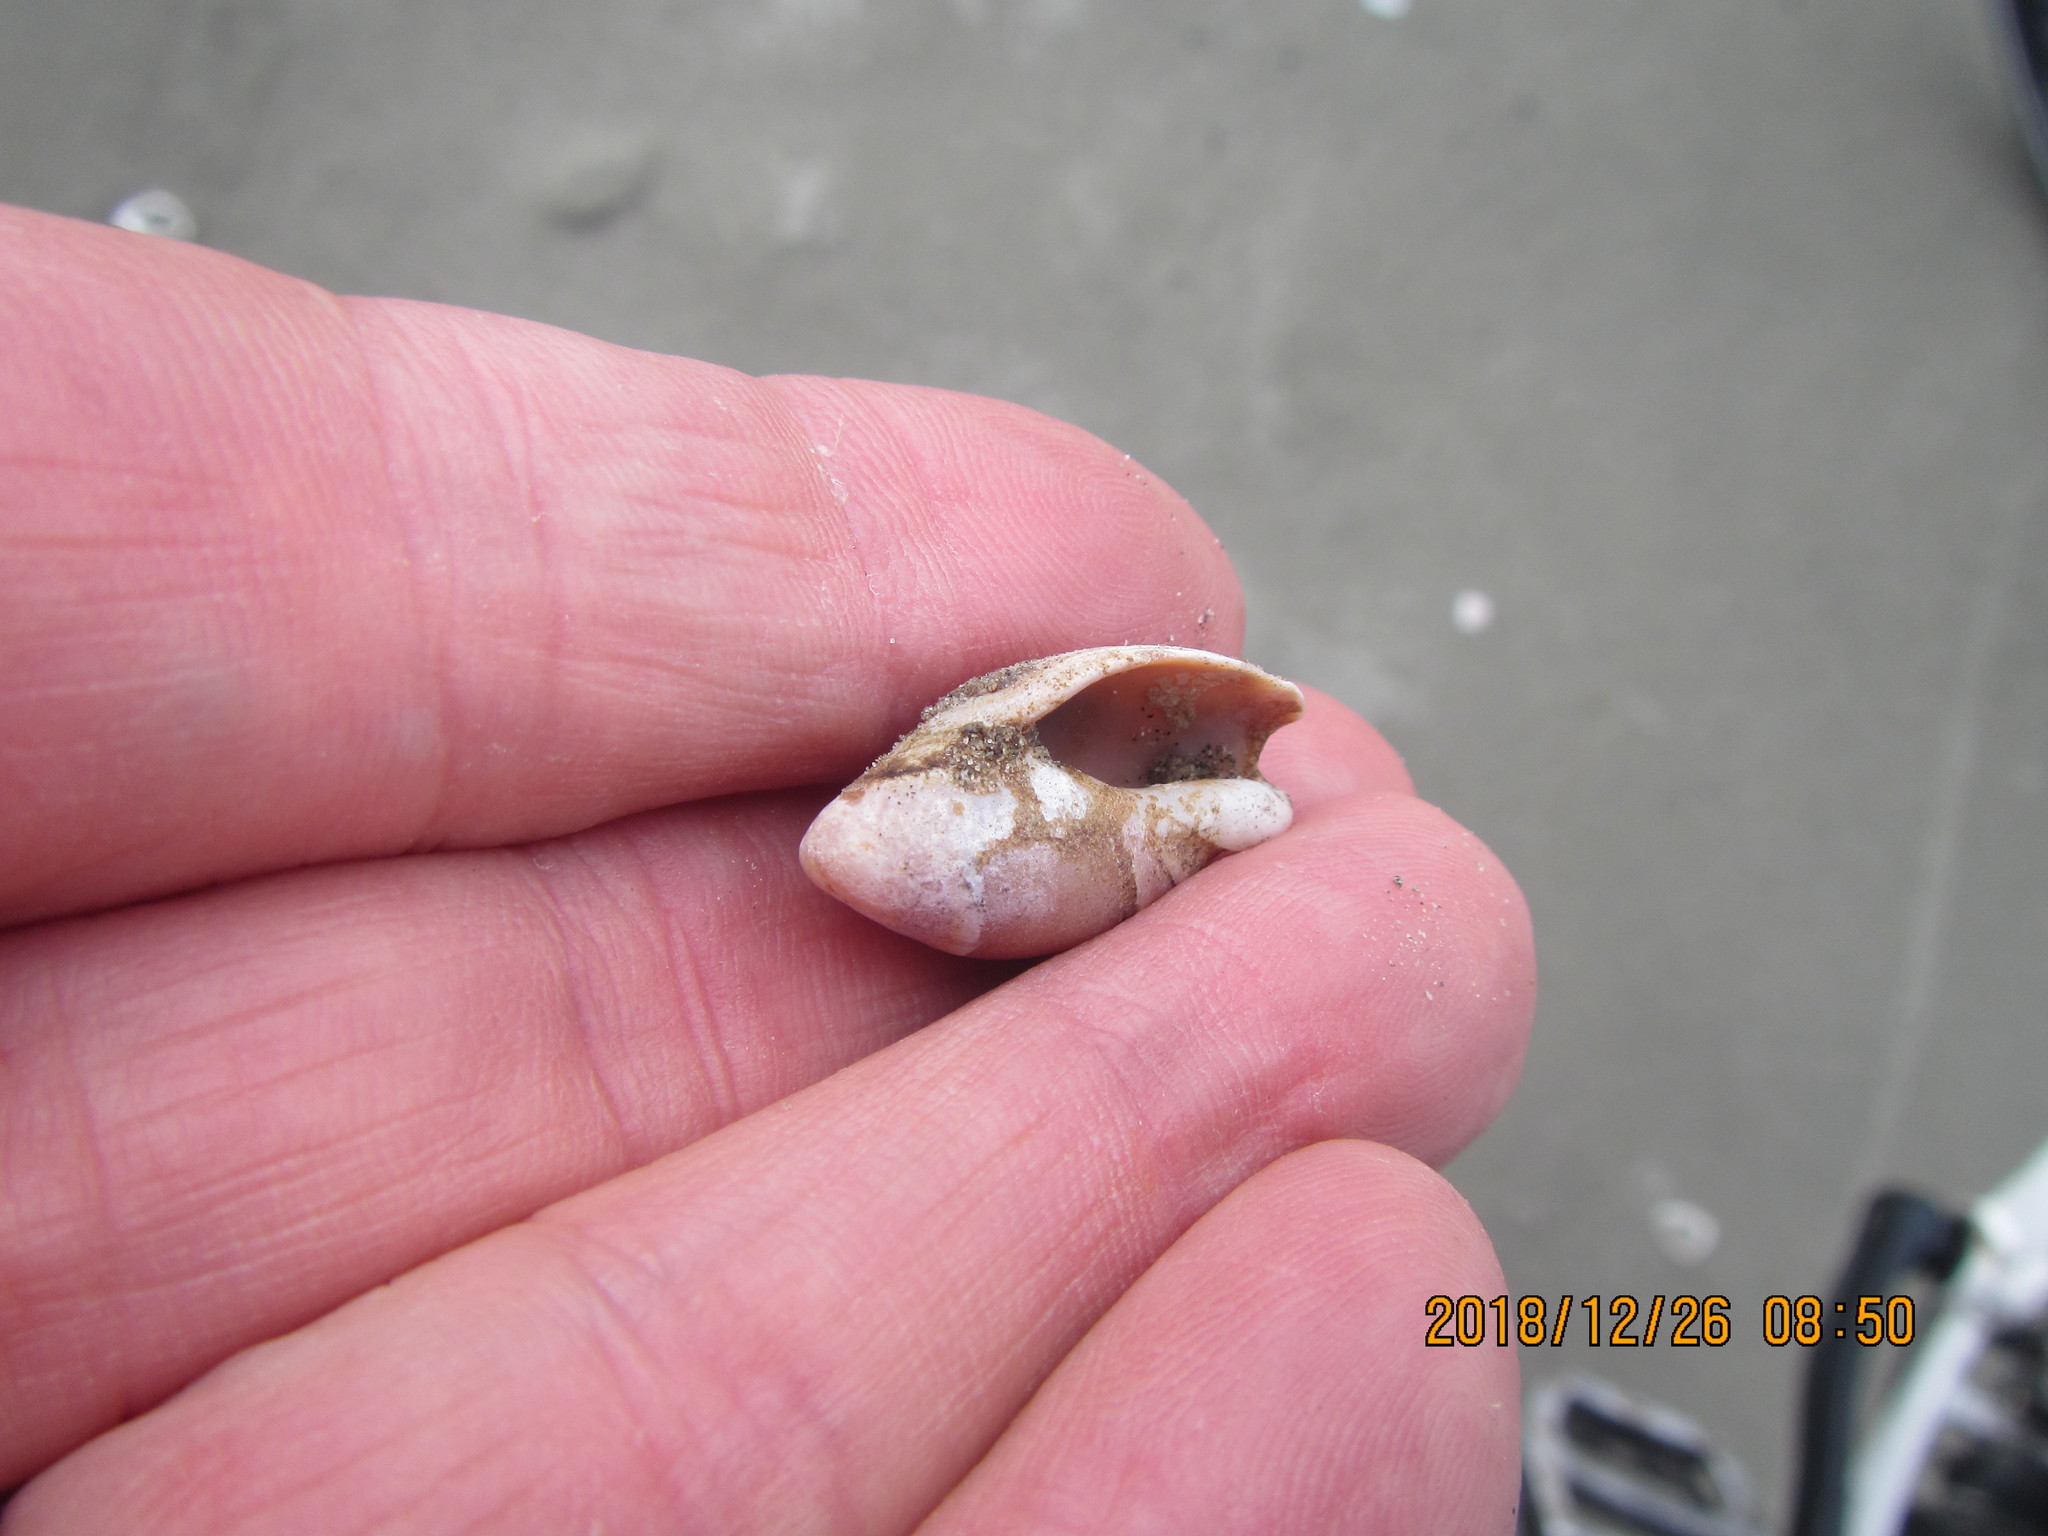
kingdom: Animalia
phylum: Mollusca
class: Gastropoda
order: Neogastropoda
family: Ancillariidae
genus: Amalda
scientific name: Amalda australis
